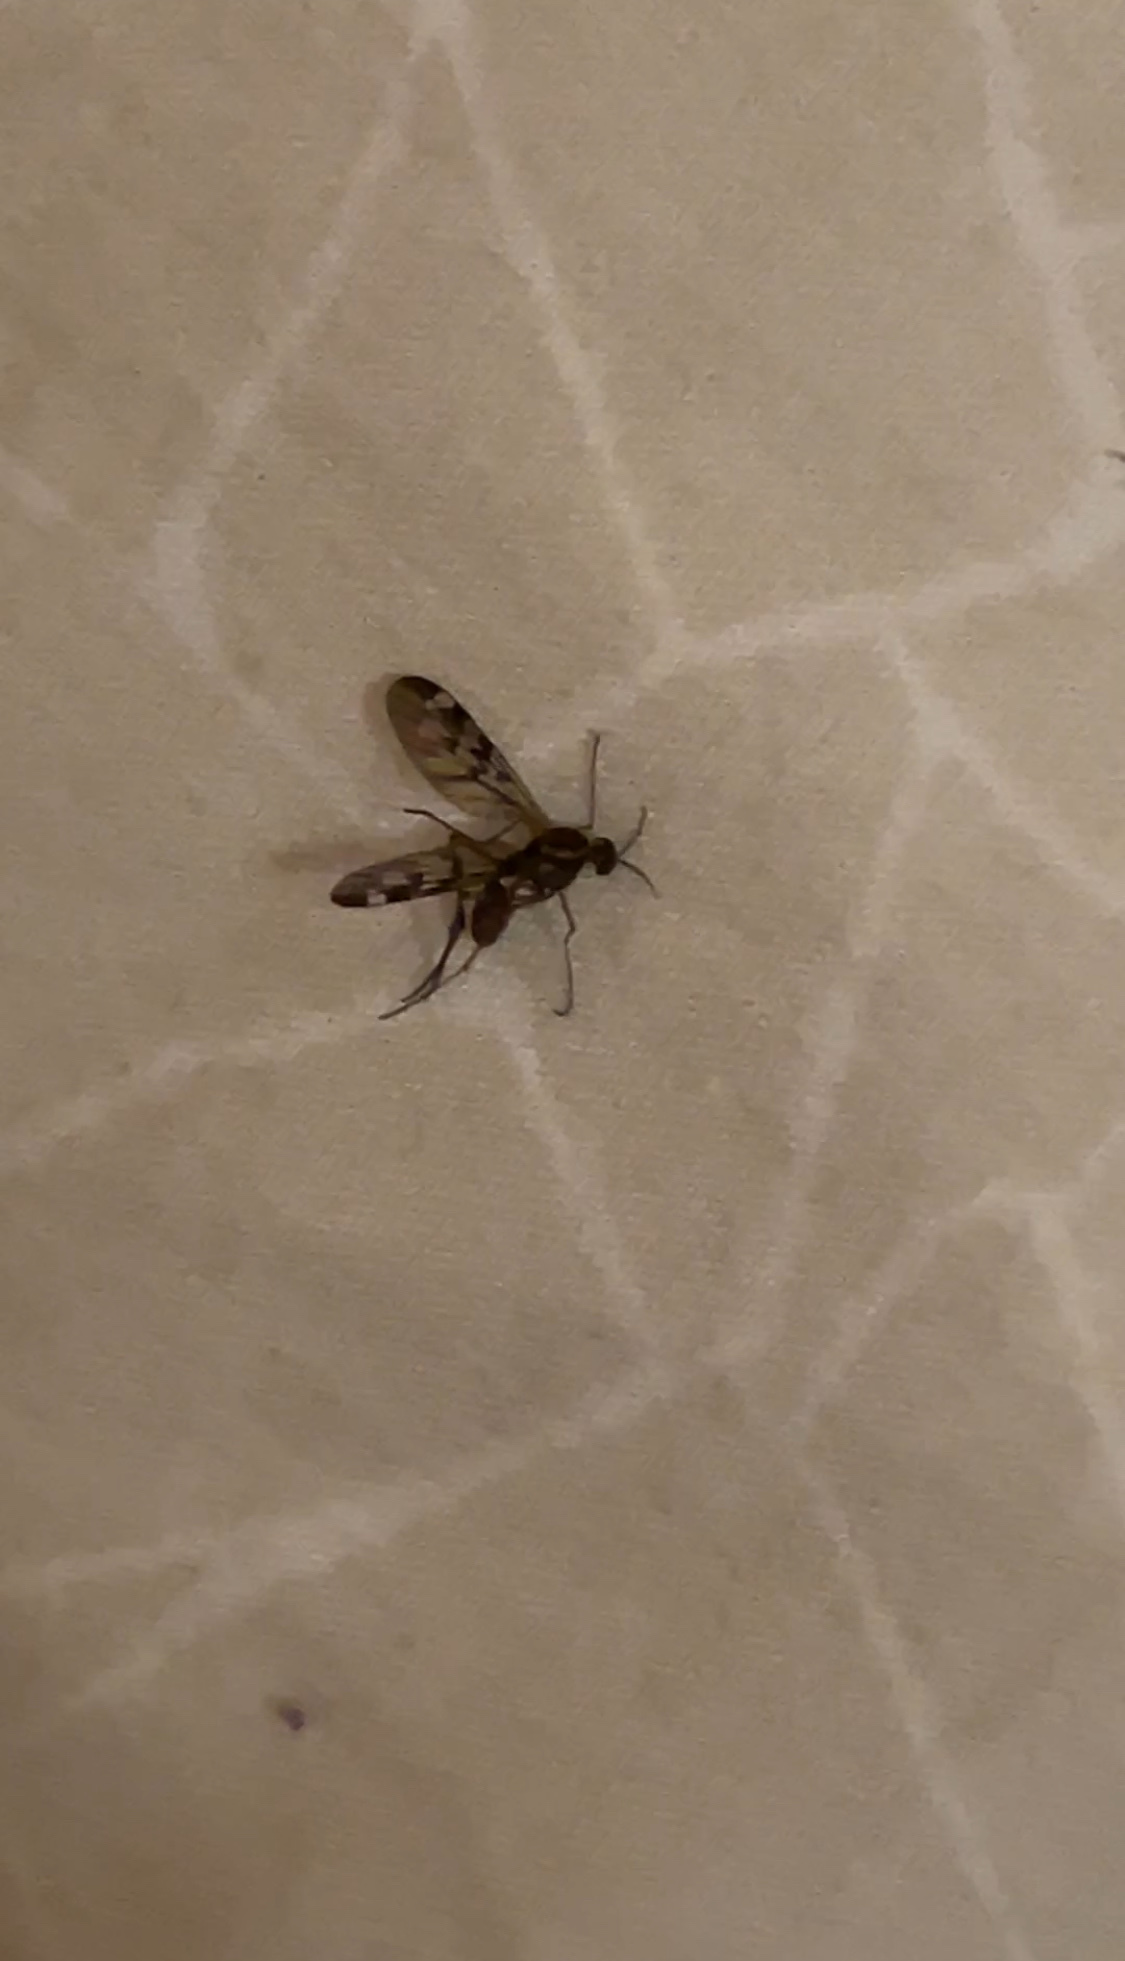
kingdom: Animalia
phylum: Arthropoda
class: Insecta
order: Diptera
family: Anisopodidae
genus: Sylvicola
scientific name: Sylvicola notatus
